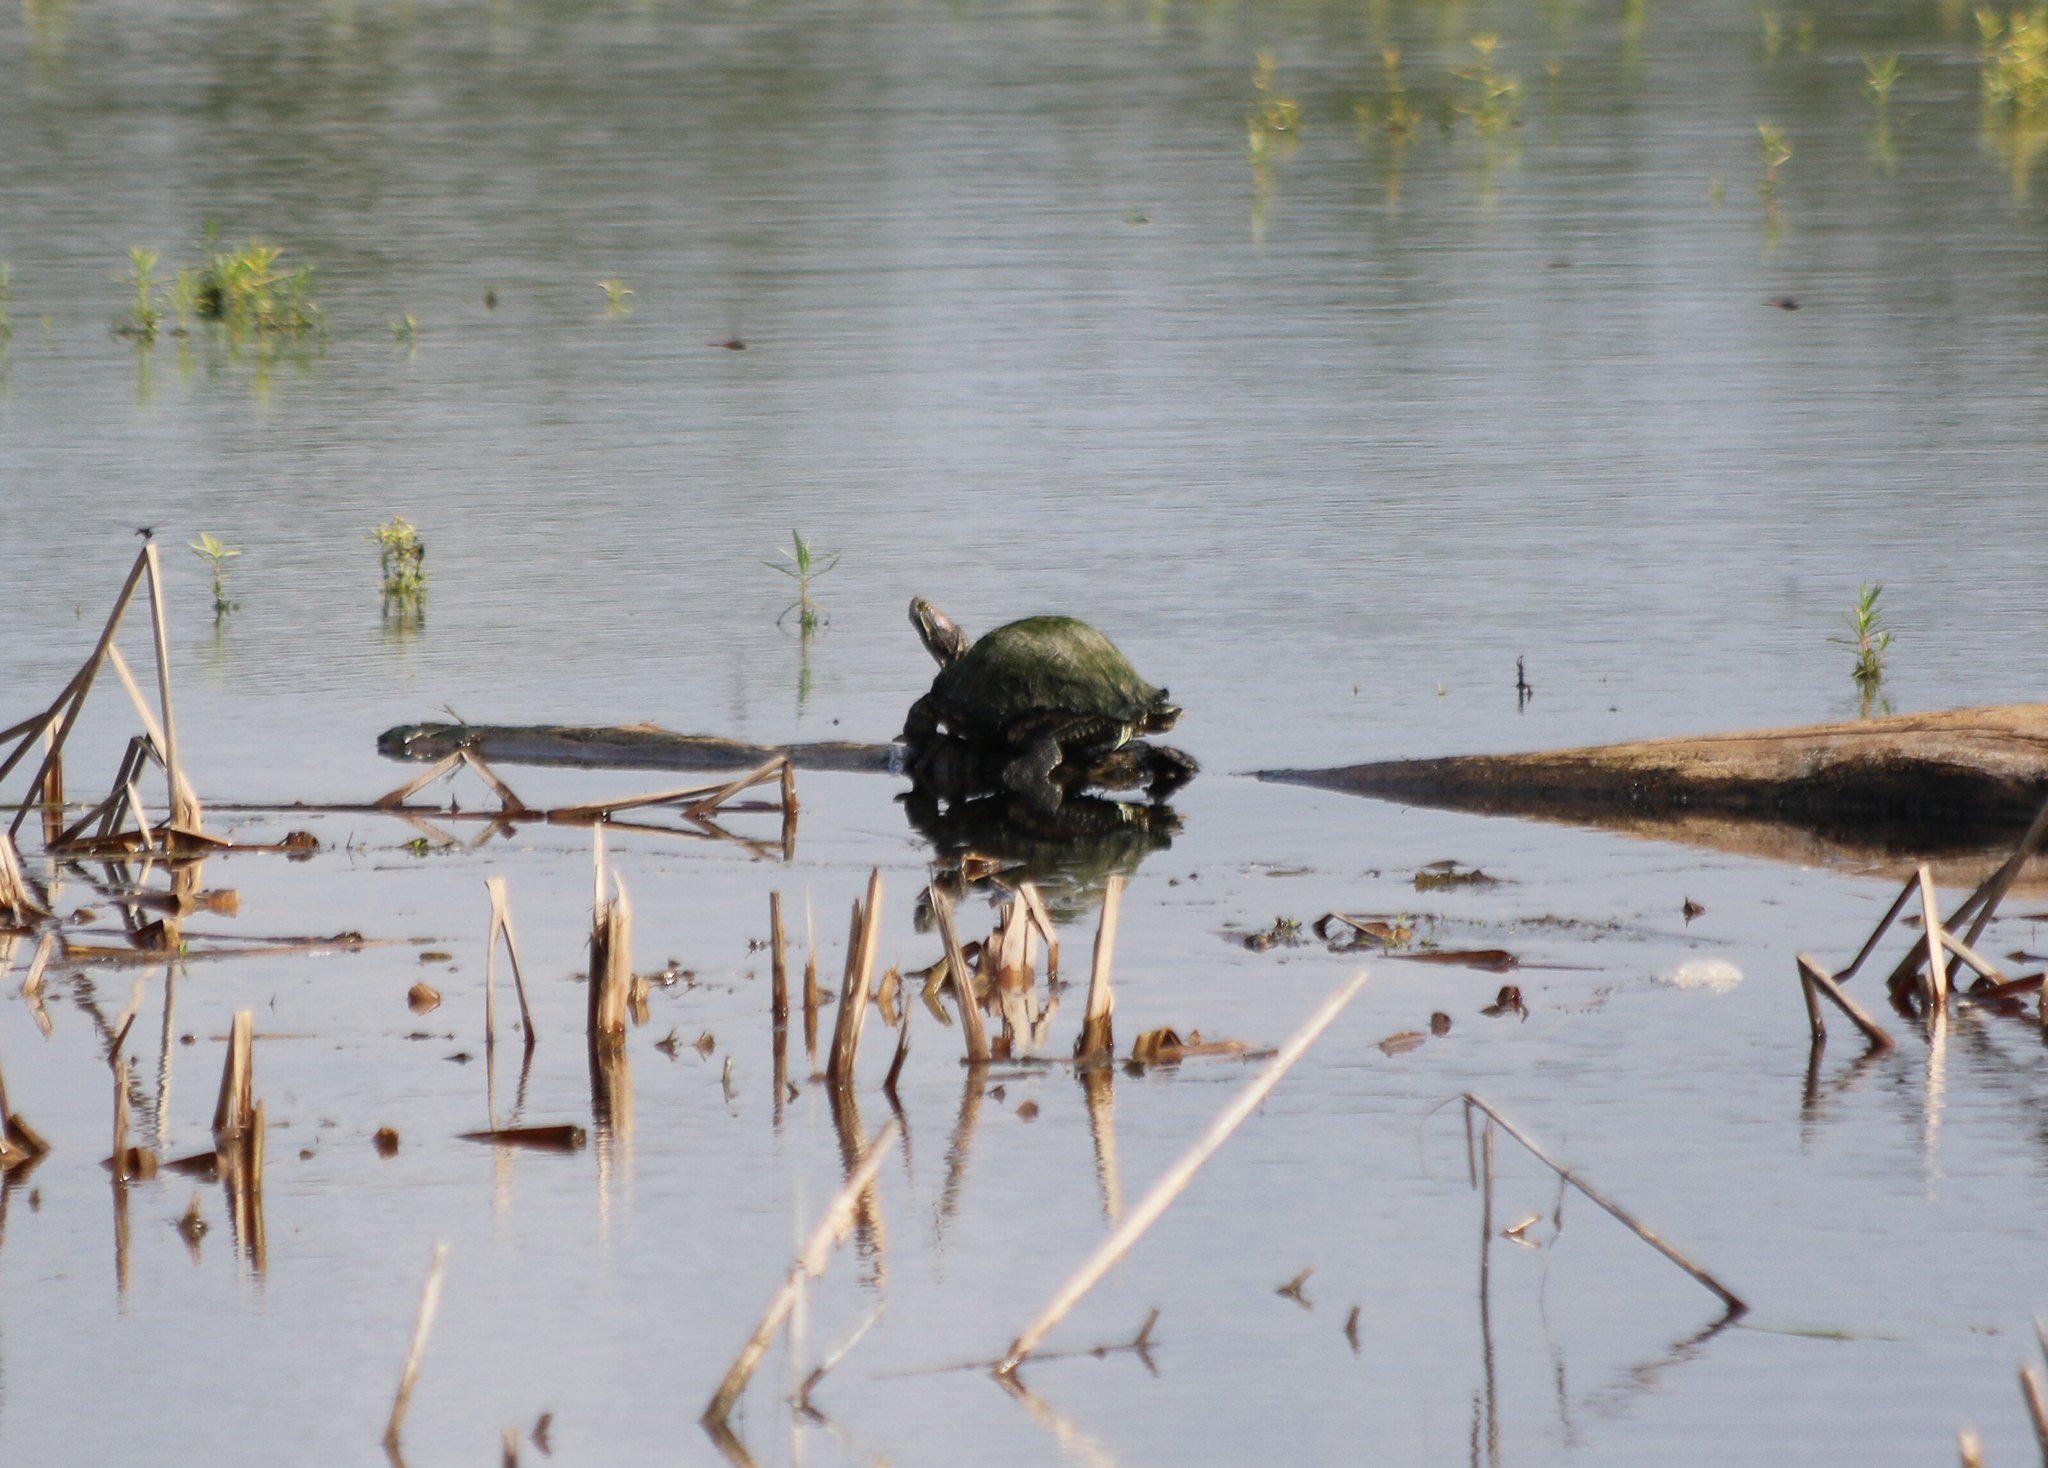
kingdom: Animalia
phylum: Chordata
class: Testudines
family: Emydidae
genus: Trachemys
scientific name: Trachemys scripta
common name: Slider
